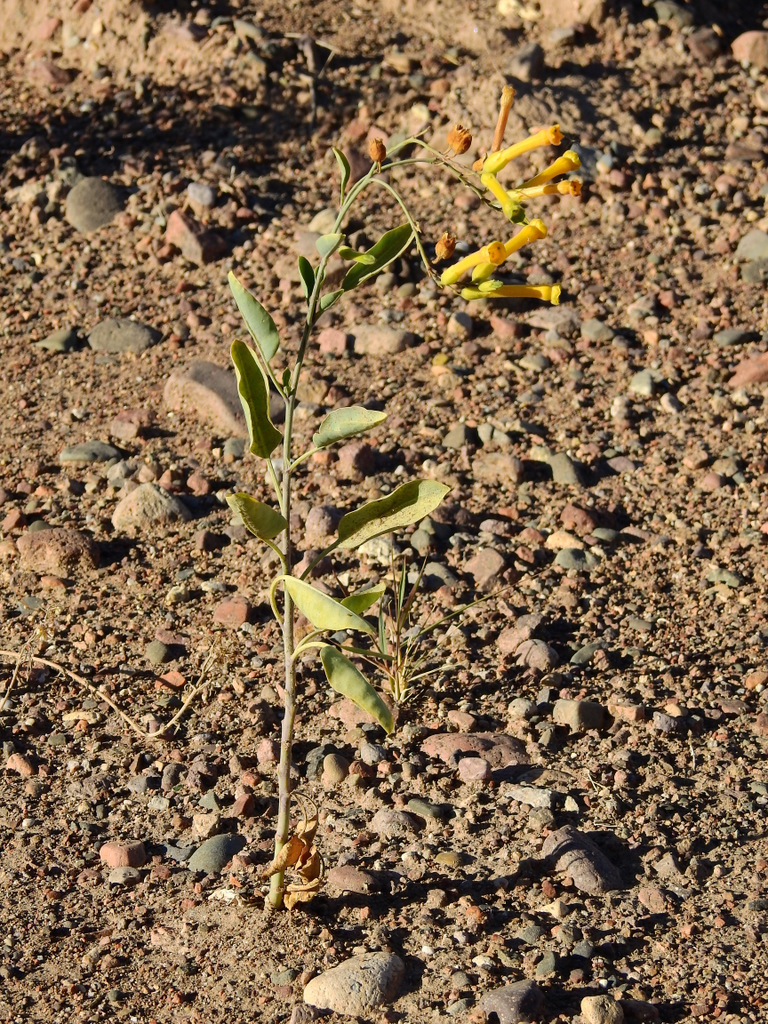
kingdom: Plantae
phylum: Tracheophyta
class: Magnoliopsida
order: Solanales
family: Solanaceae
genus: Nicotiana
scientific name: Nicotiana glauca
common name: Tree tobacco
